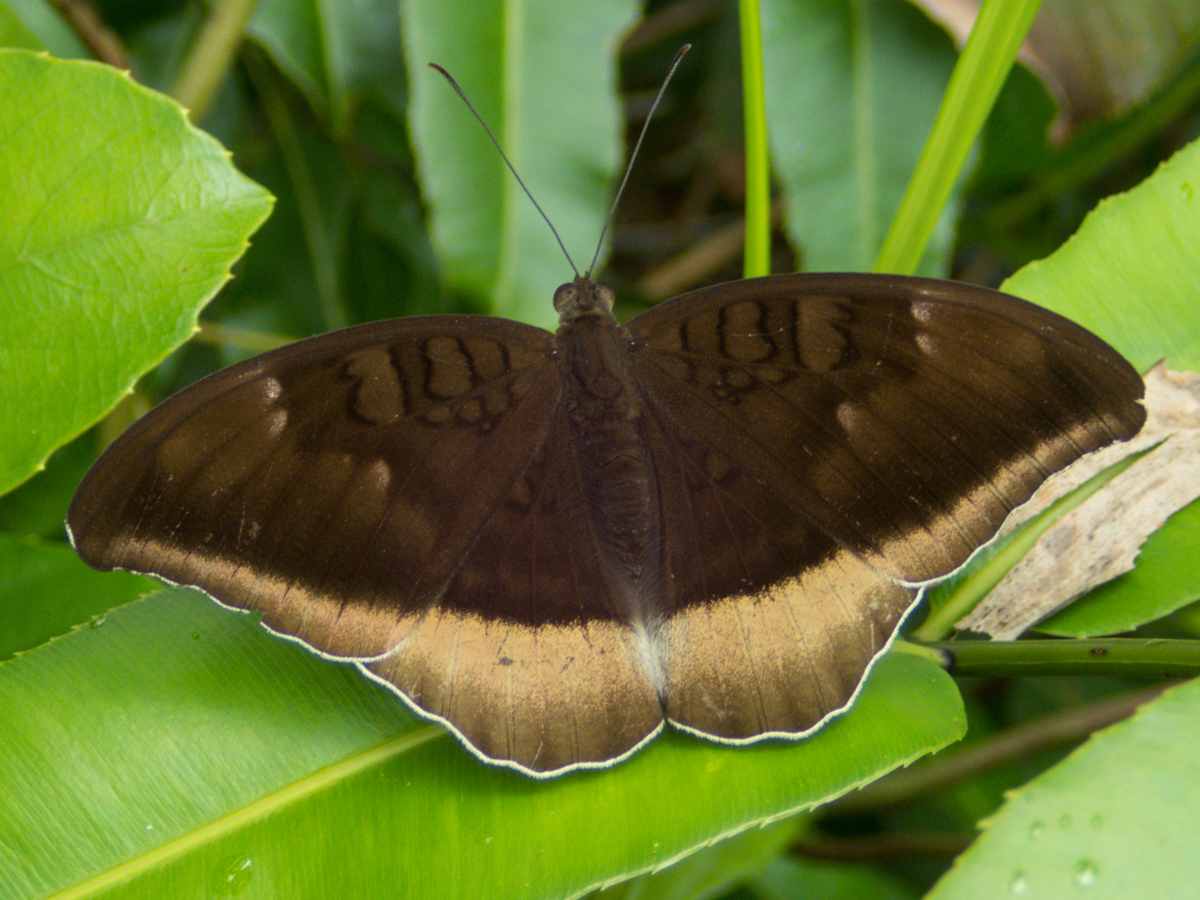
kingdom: Animalia
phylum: Arthropoda
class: Insecta
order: Lepidoptera
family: Nymphalidae
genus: Tanaecia
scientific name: Tanaecia lepidea
